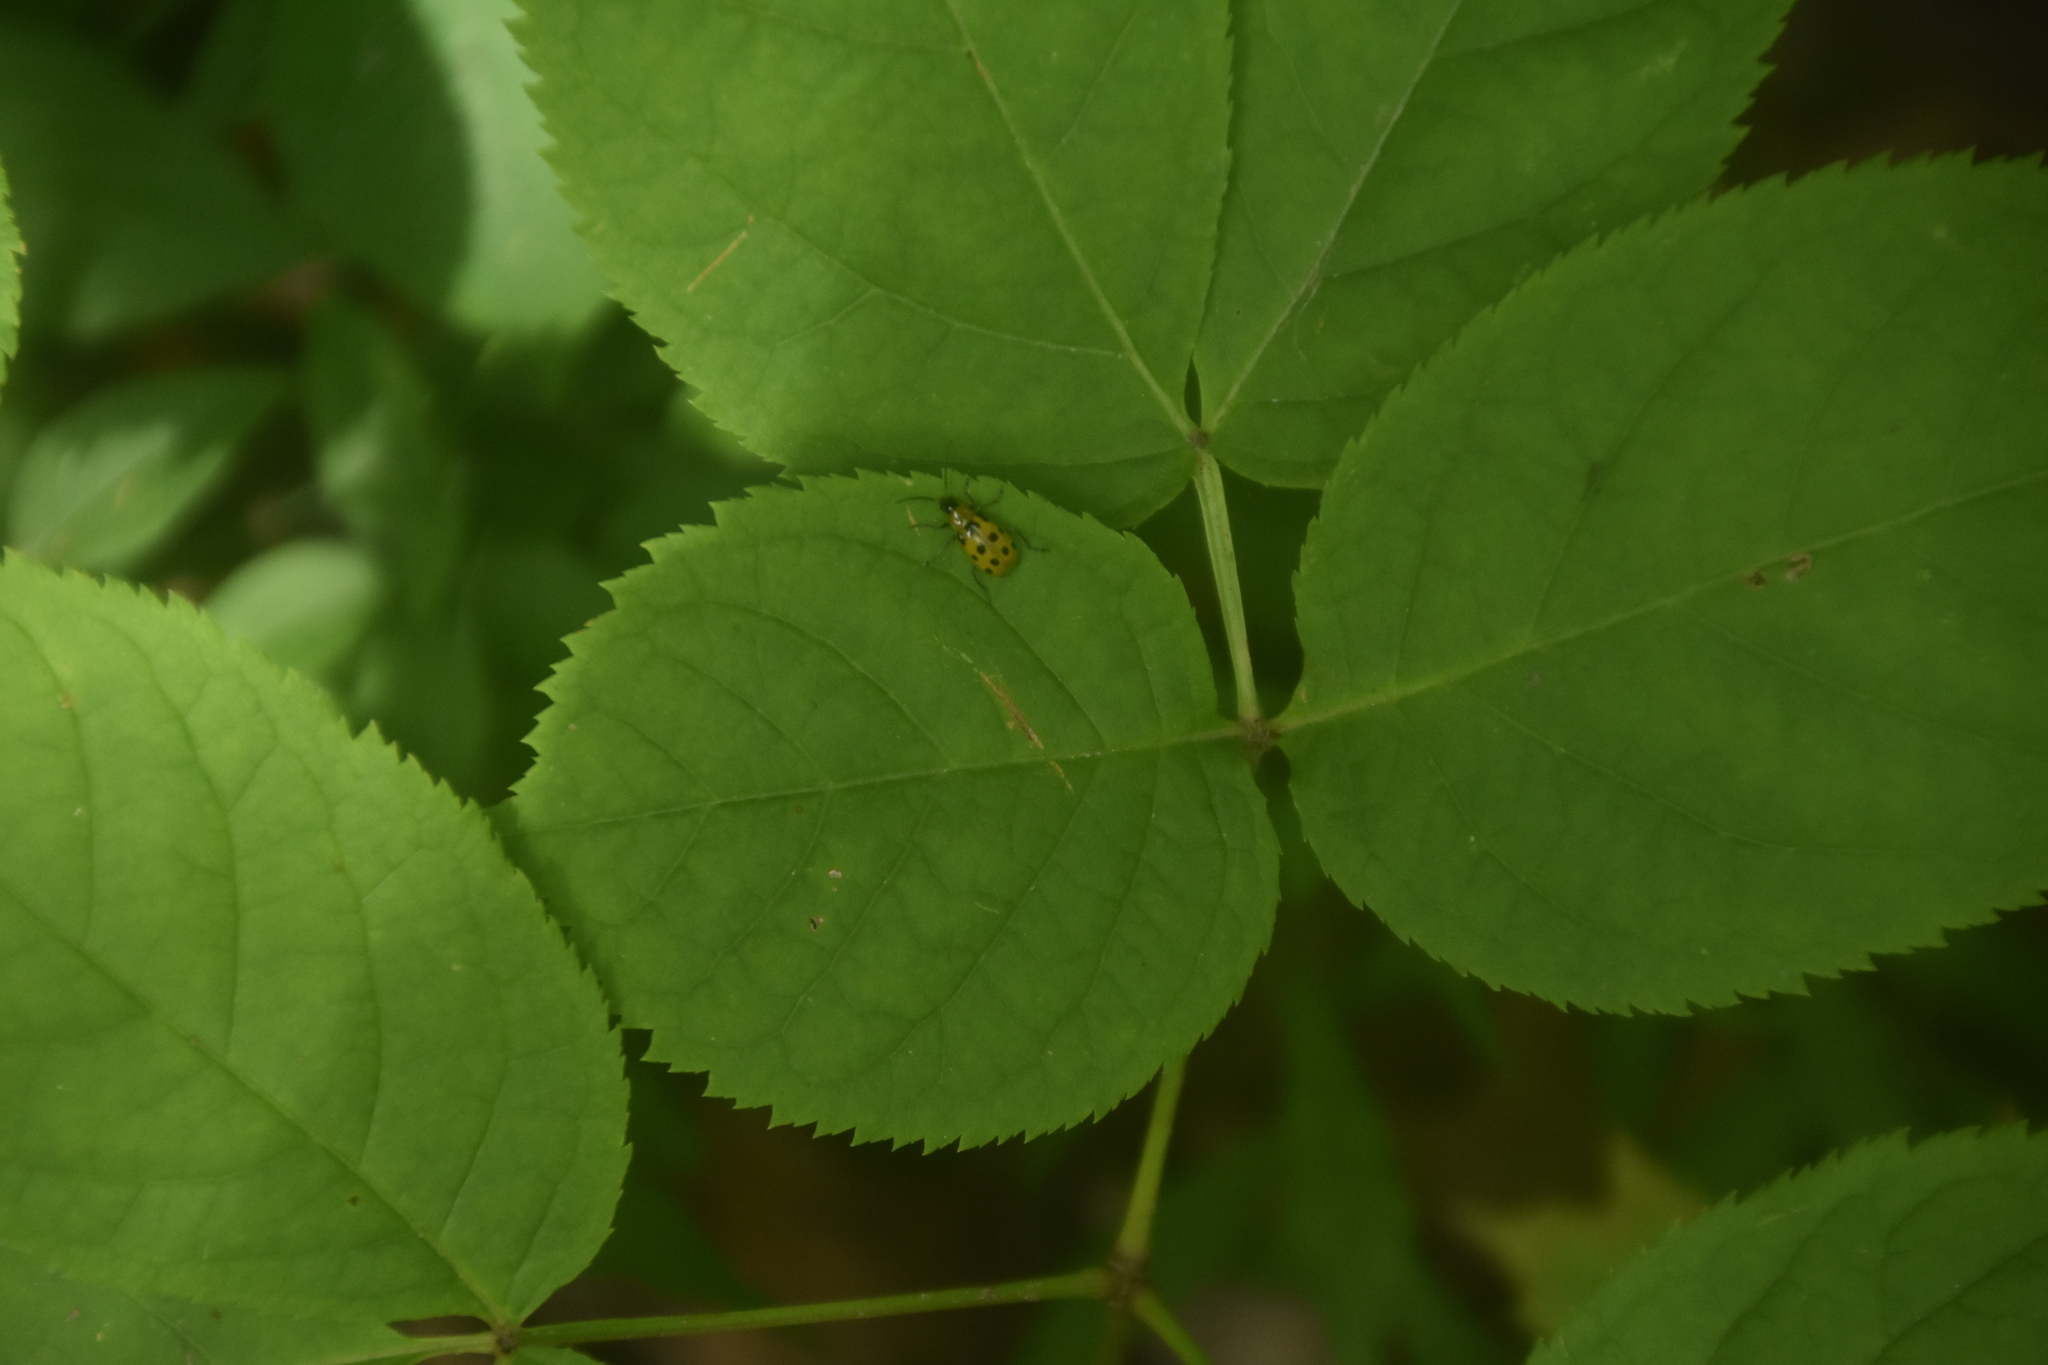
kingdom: Animalia
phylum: Arthropoda
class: Insecta
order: Coleoptera
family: Chrysomelidae
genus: Diabrotica
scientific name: Diabrotica undecimpunctata
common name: Spotted cucumber beetle
